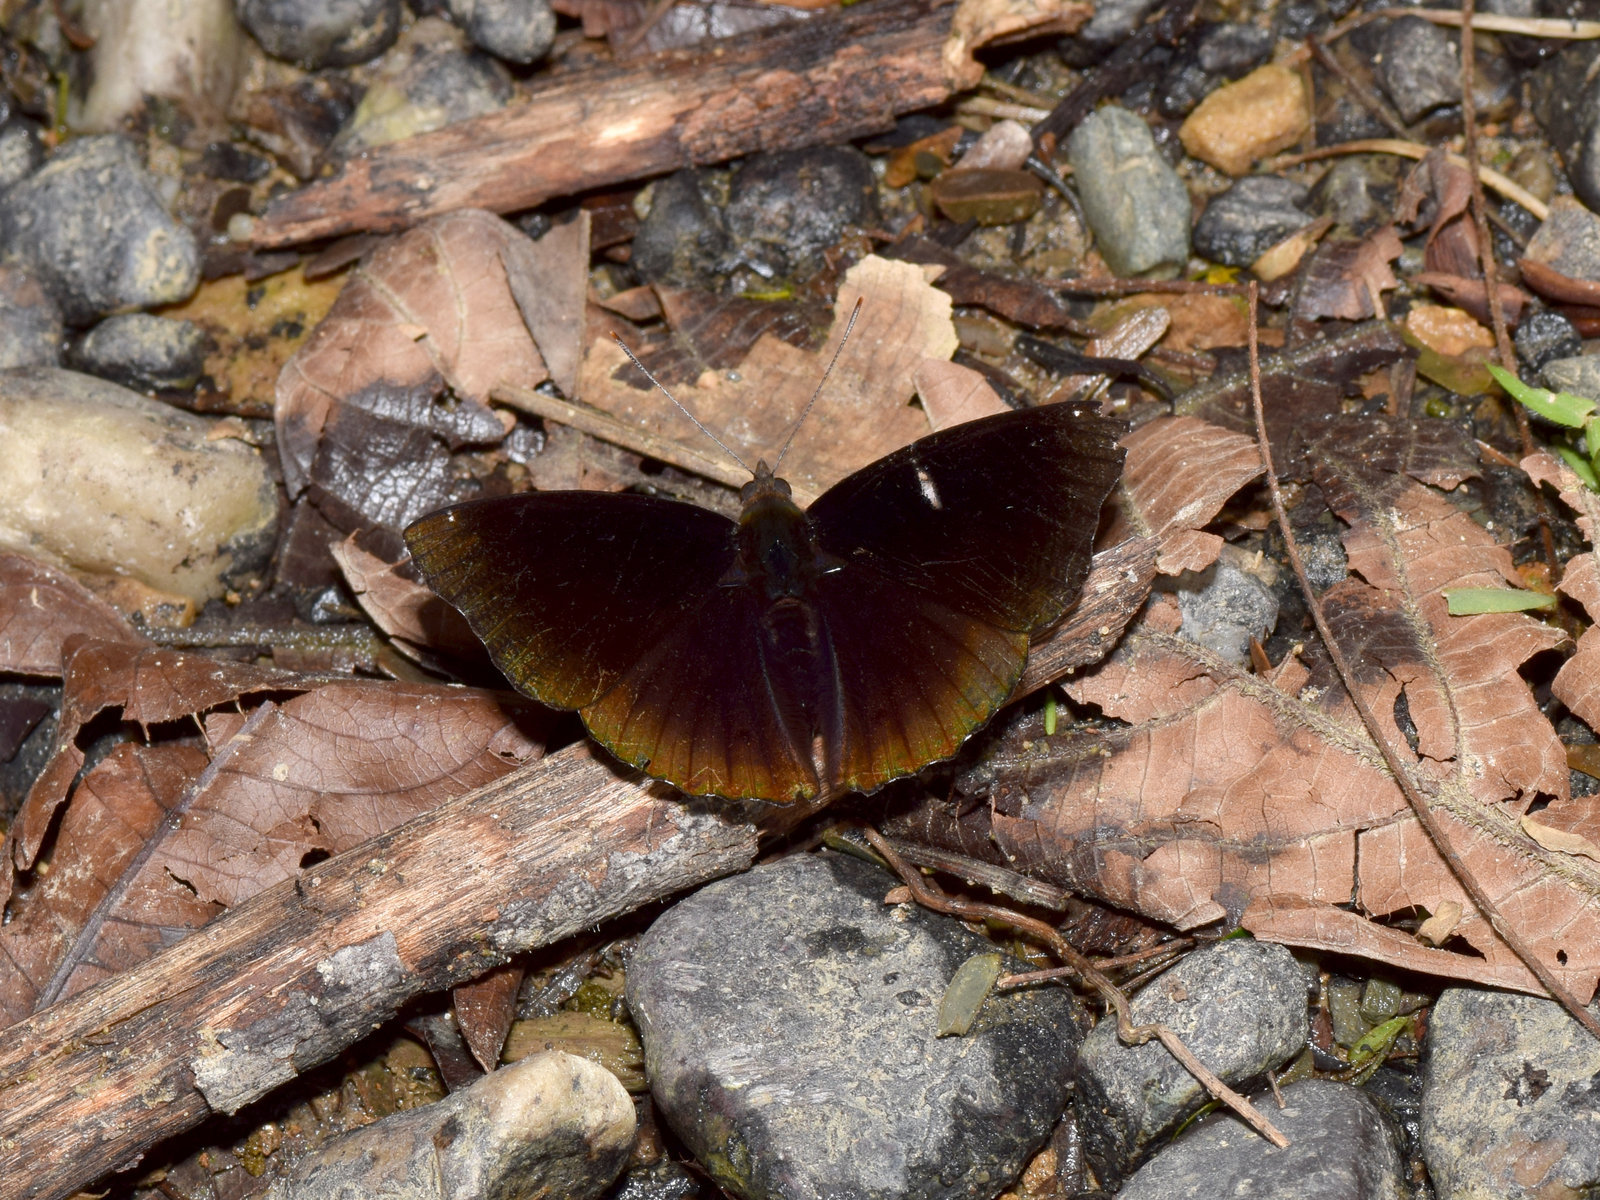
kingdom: Animalia
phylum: Arthropoda
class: Insecta
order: Lepidoptera
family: Nymphalidae
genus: Apatura
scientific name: Apatura Rohana spec
